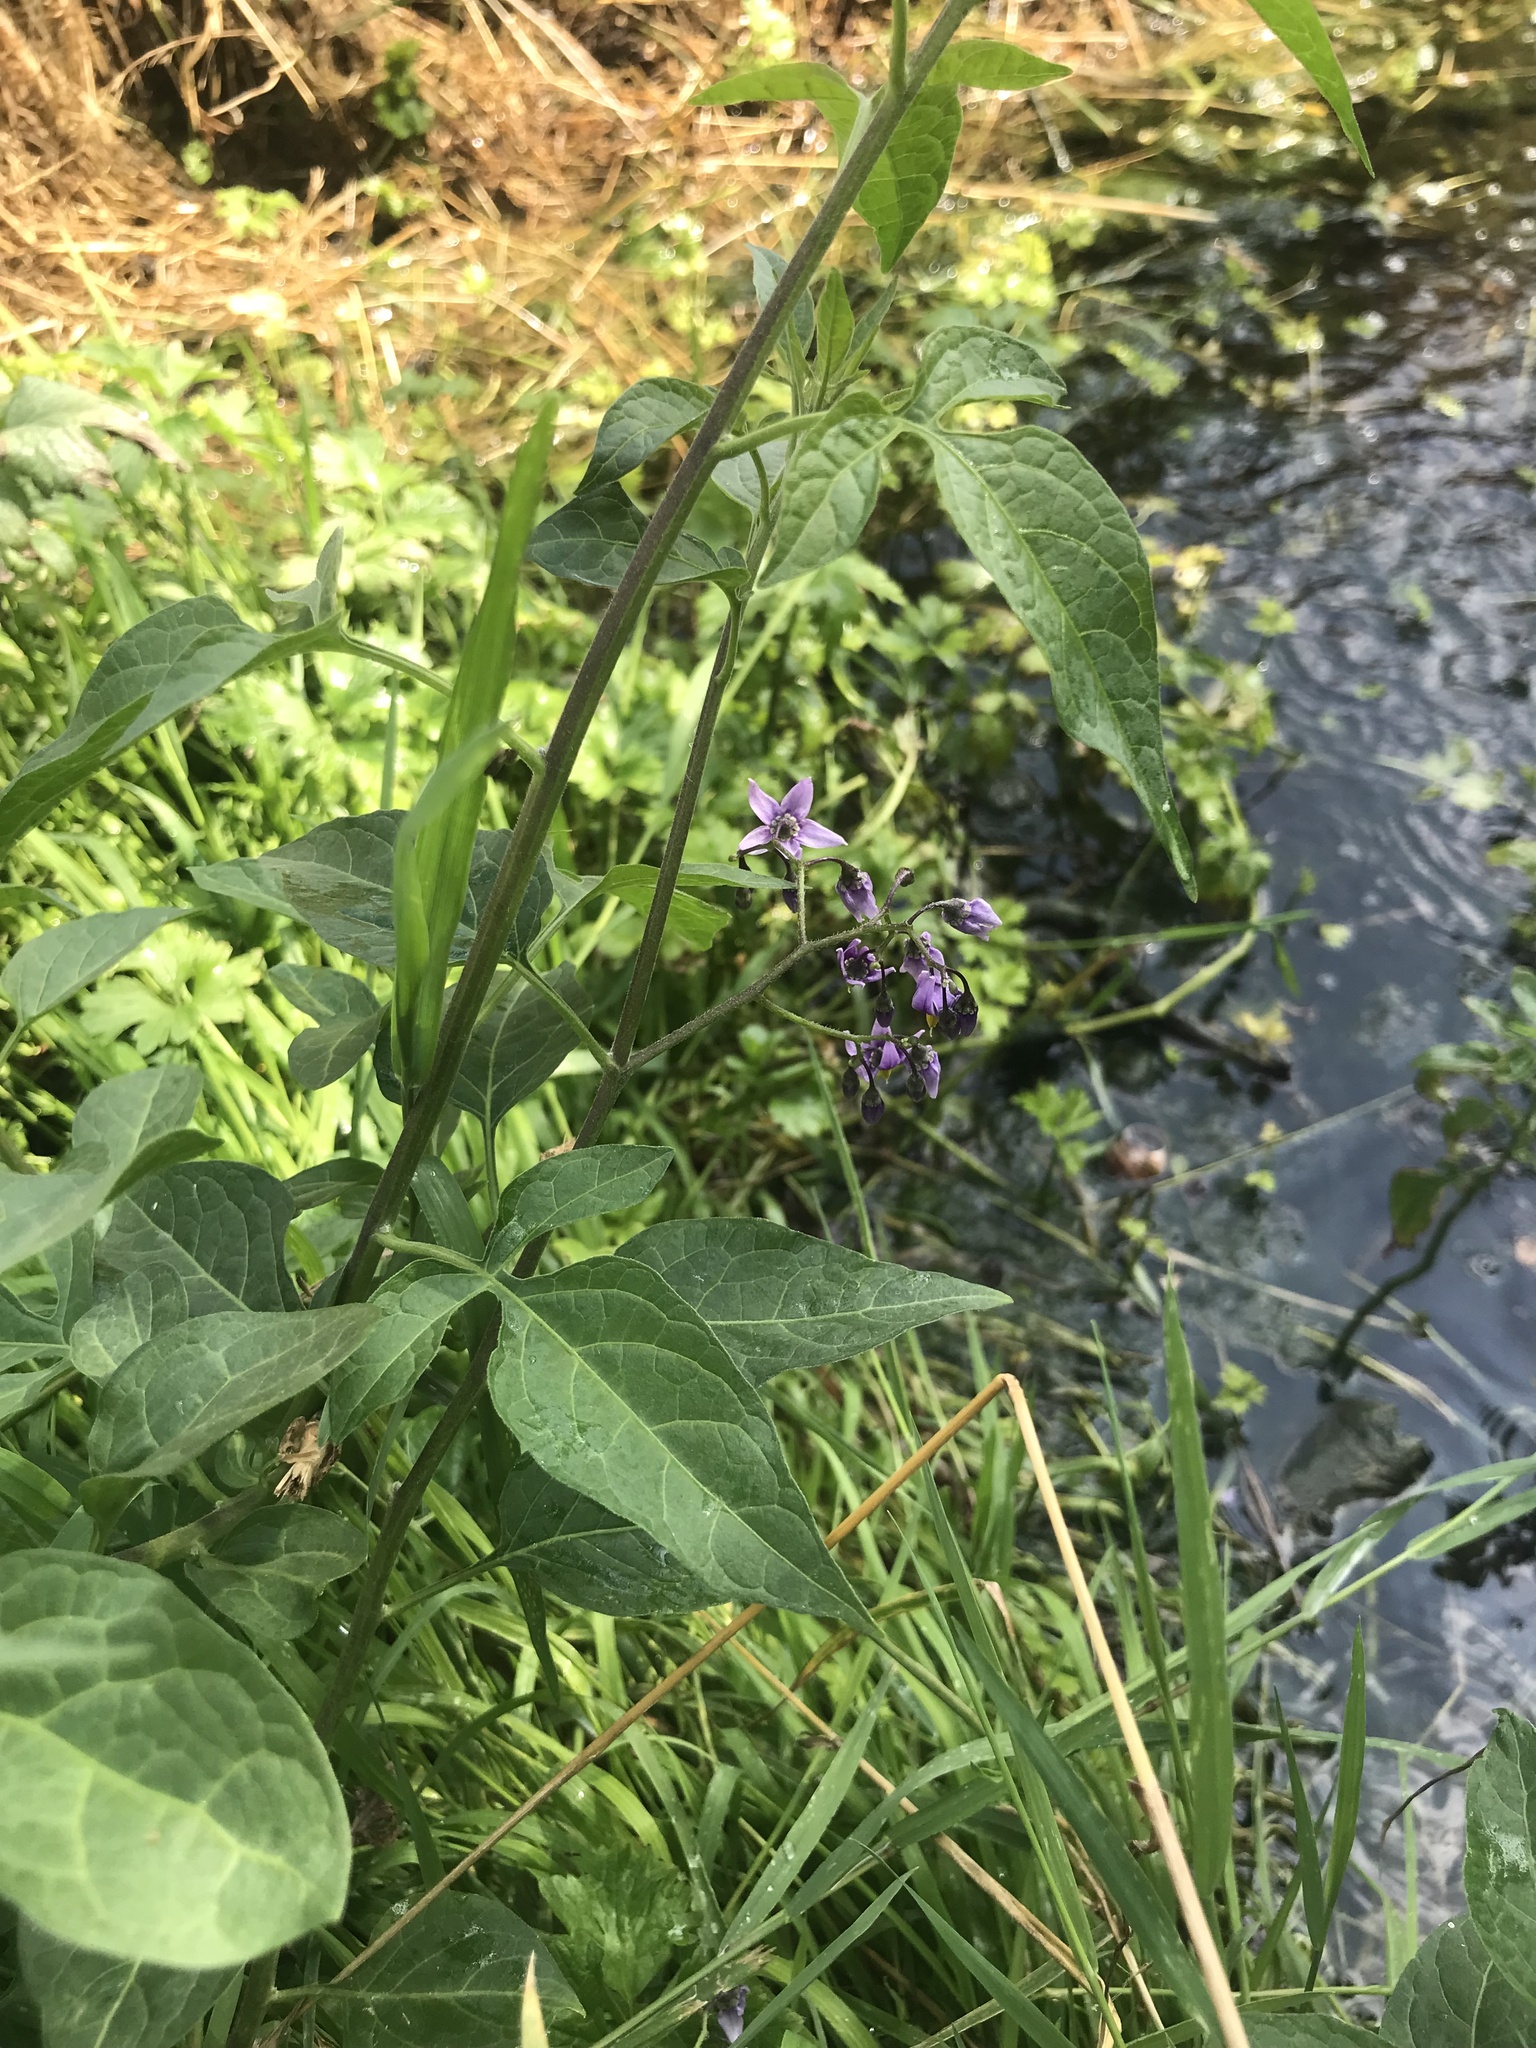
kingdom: Plantae
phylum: Tracheophyta
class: Magnoliopsida
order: Solanales
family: Solanaceae
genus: Solanum
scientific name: Solanum dulcamara
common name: Climbing nightshade
